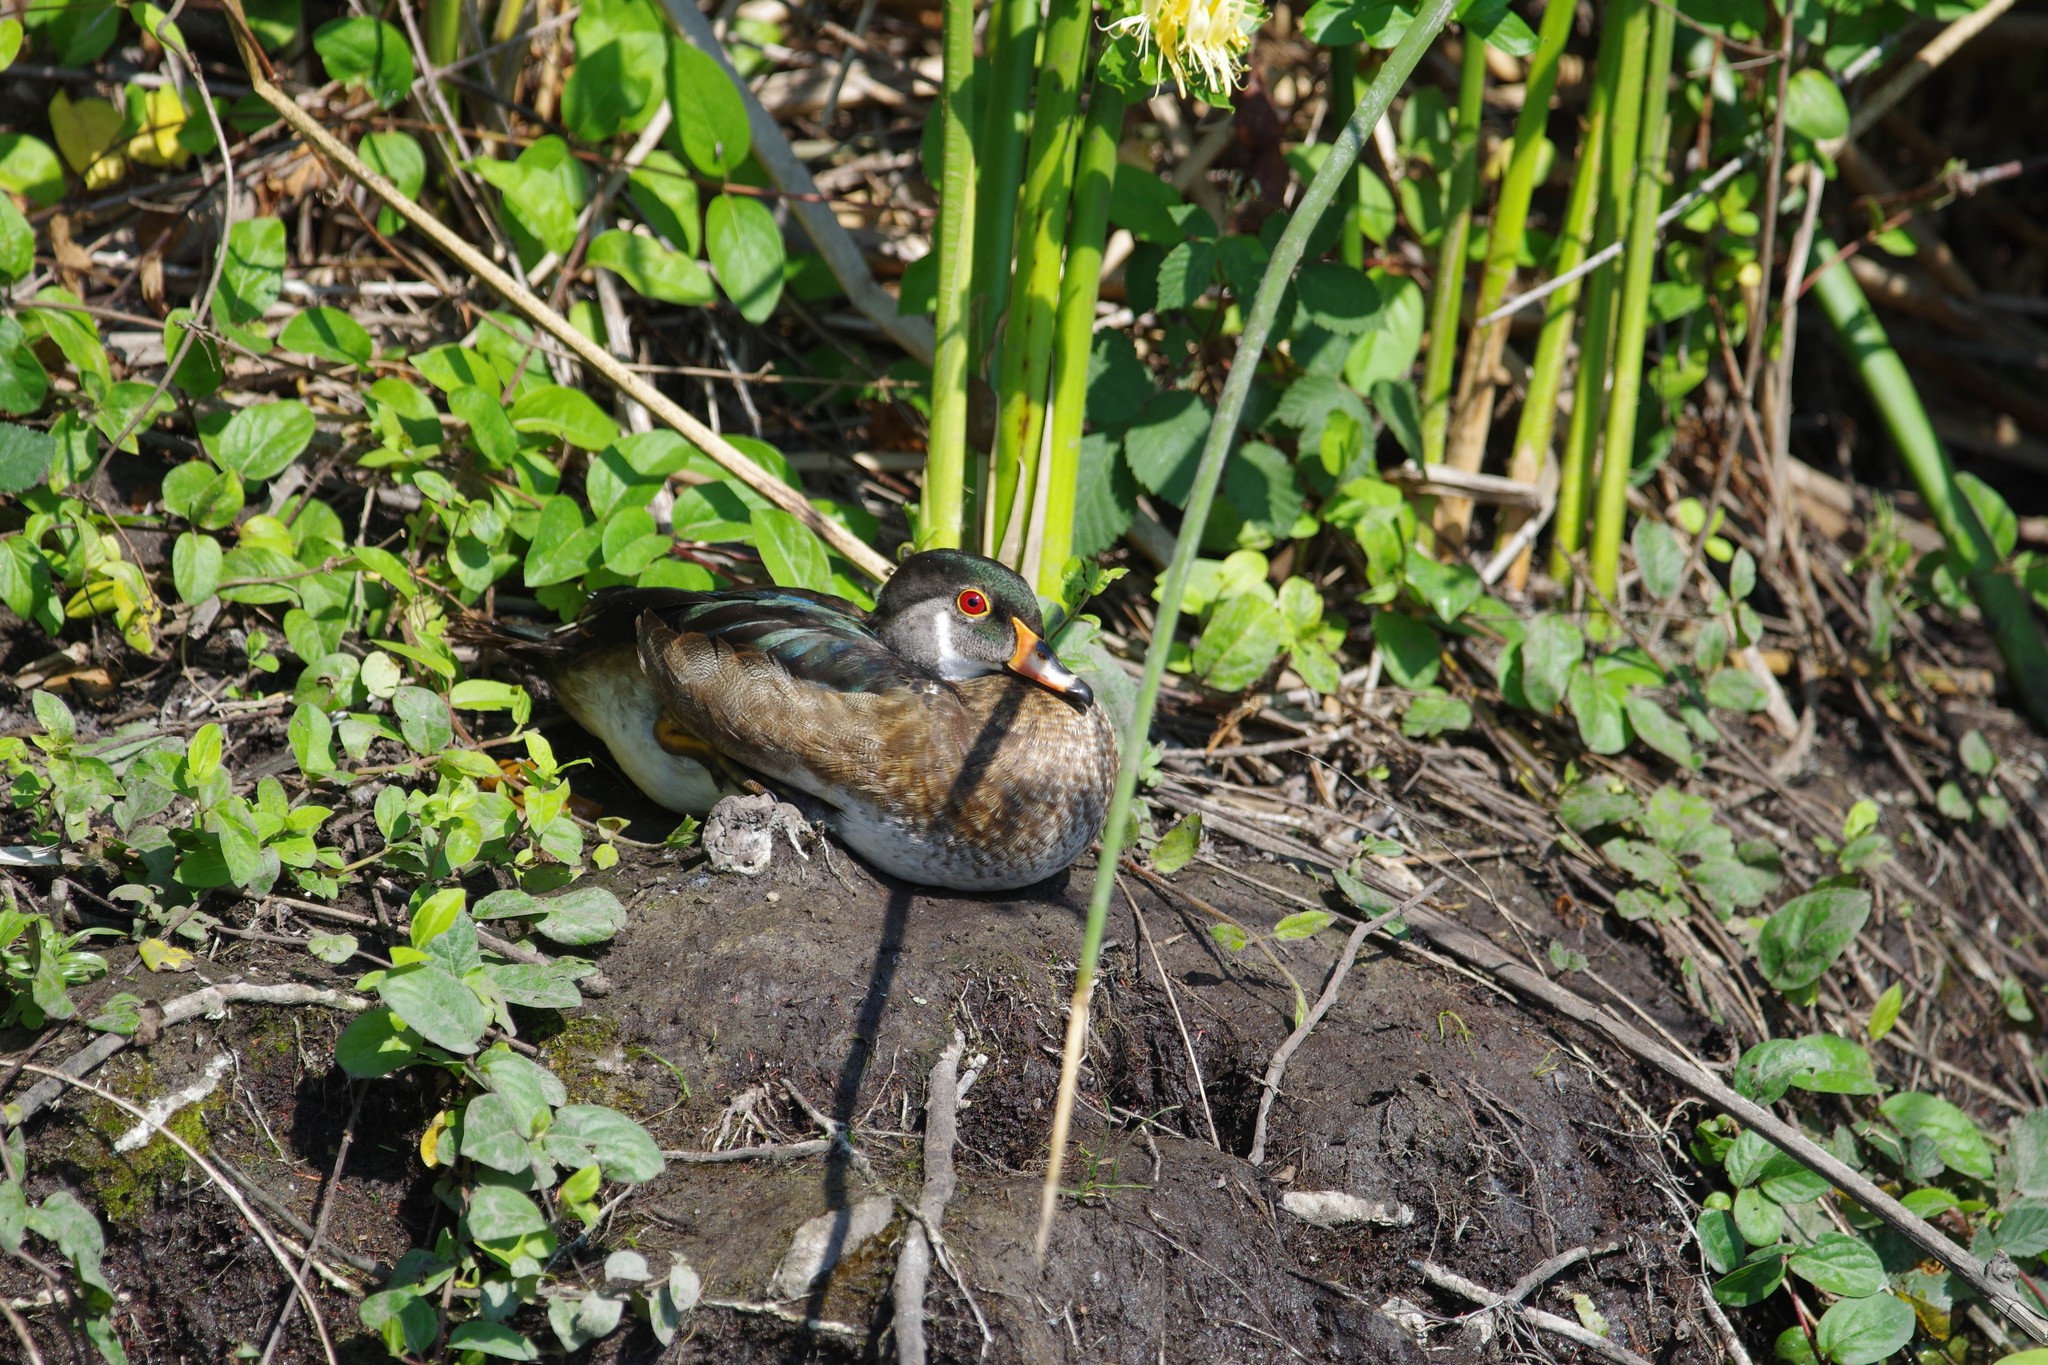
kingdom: Animalia
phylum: Chordata
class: Aves
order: Anseriformes
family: Anatidae
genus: Aix
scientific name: Aix sponsa
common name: Wood duck
